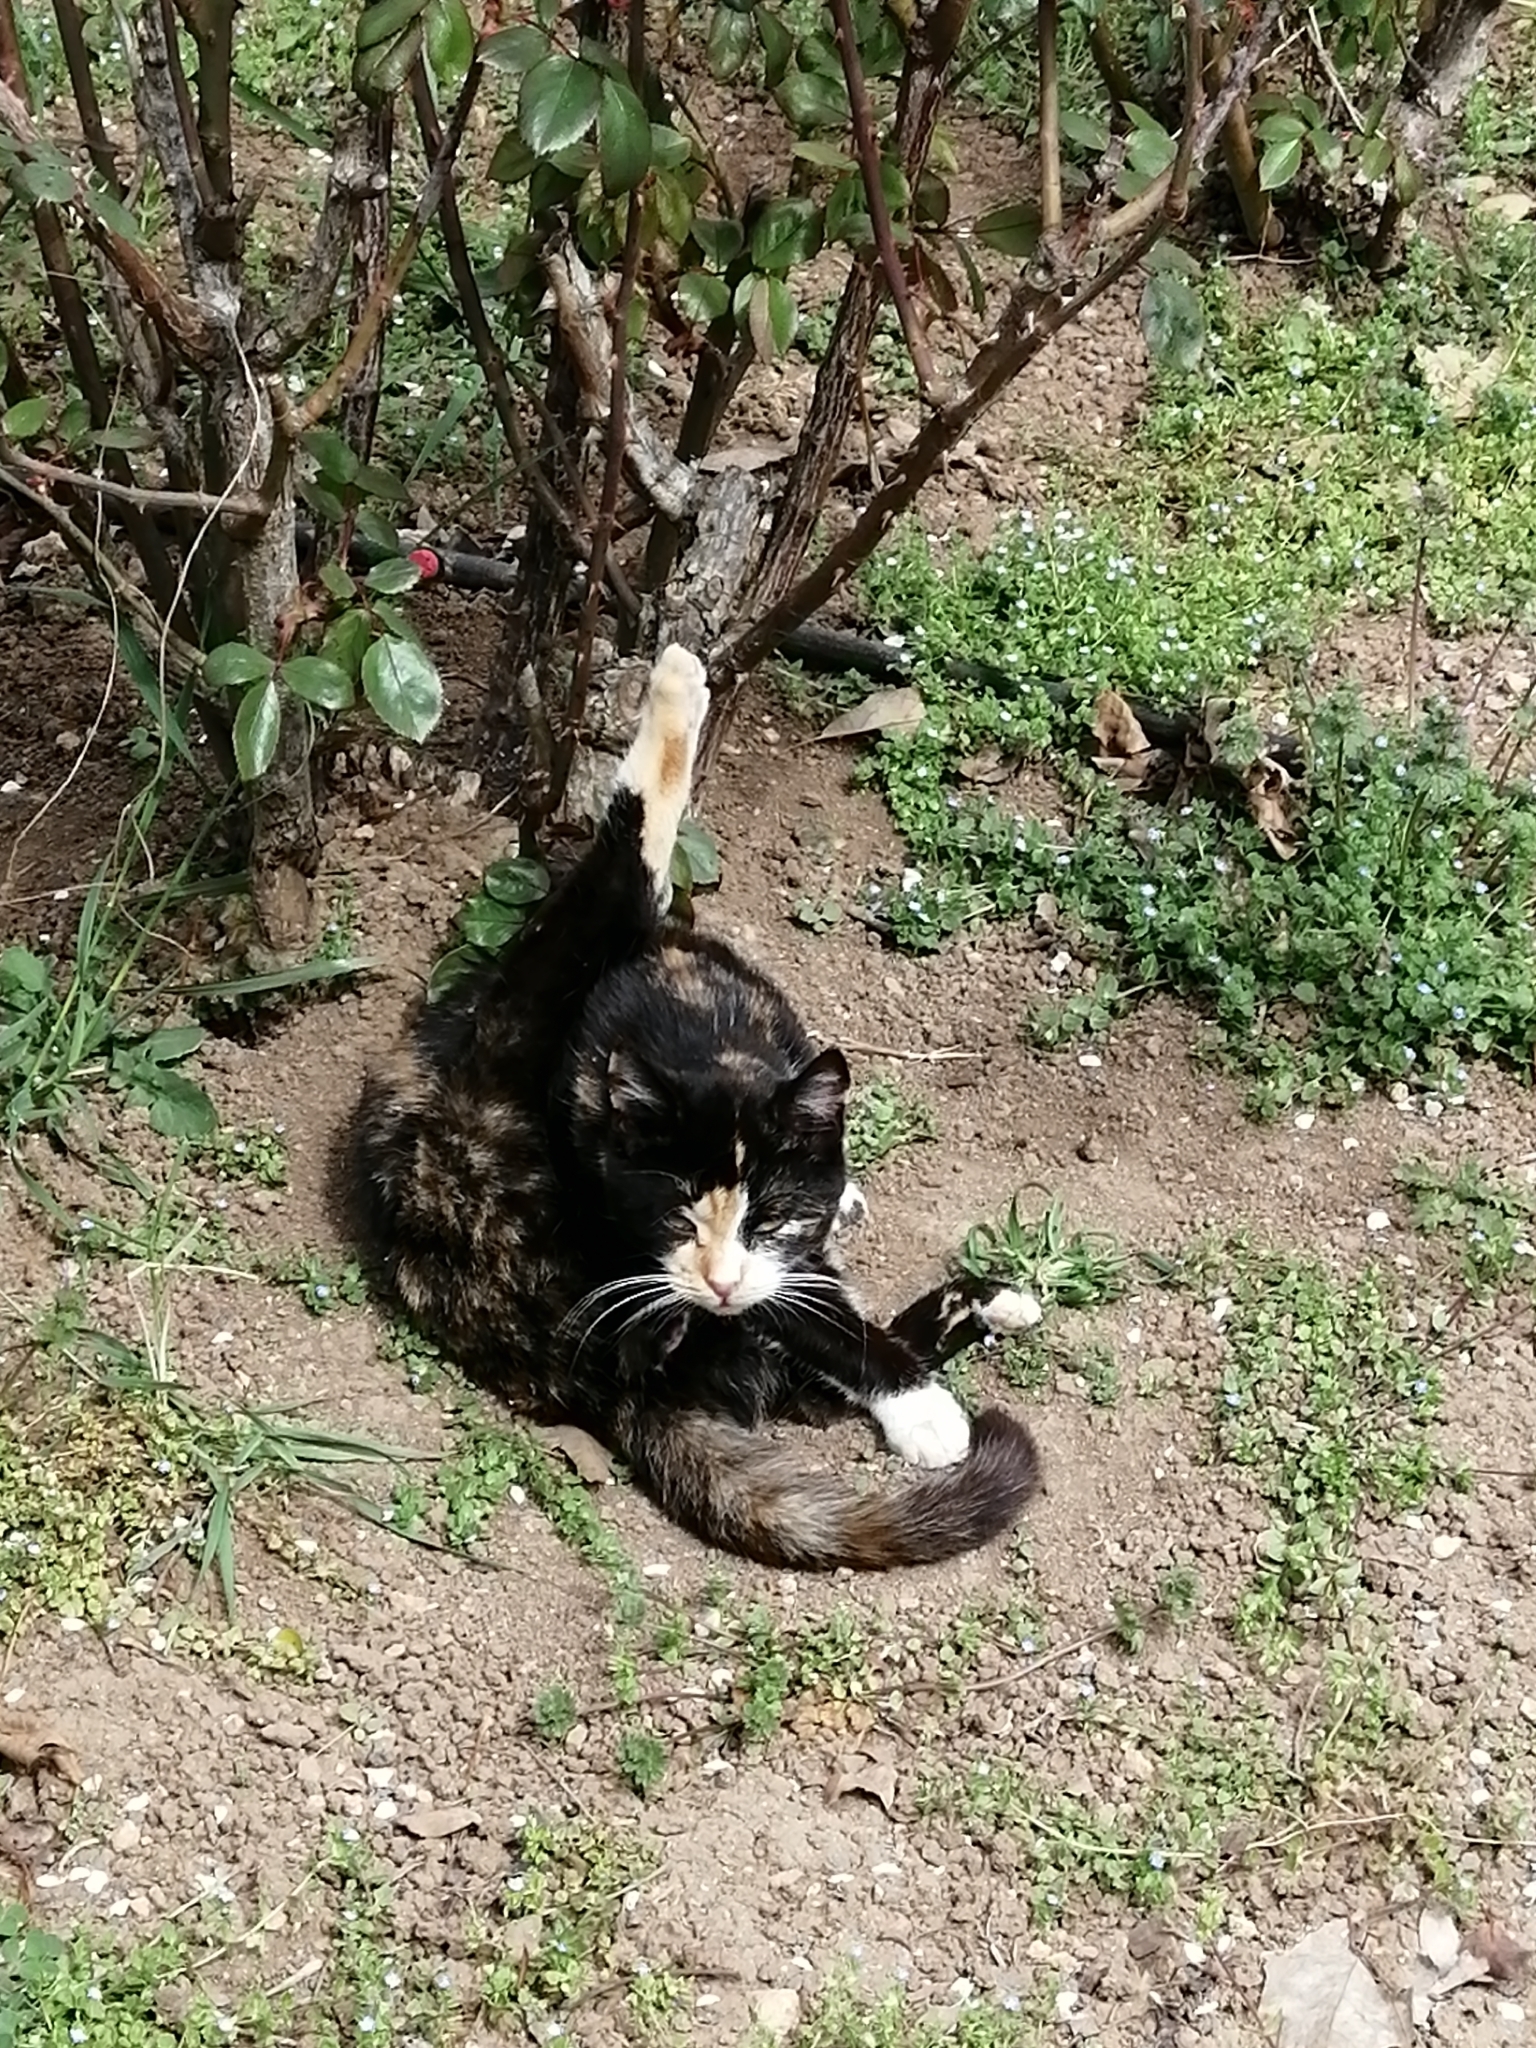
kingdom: Animalia
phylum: Chordata
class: Mammalia
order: Carnivora
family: Felidae
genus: Felis
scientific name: Felis catus
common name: Domestic cat
